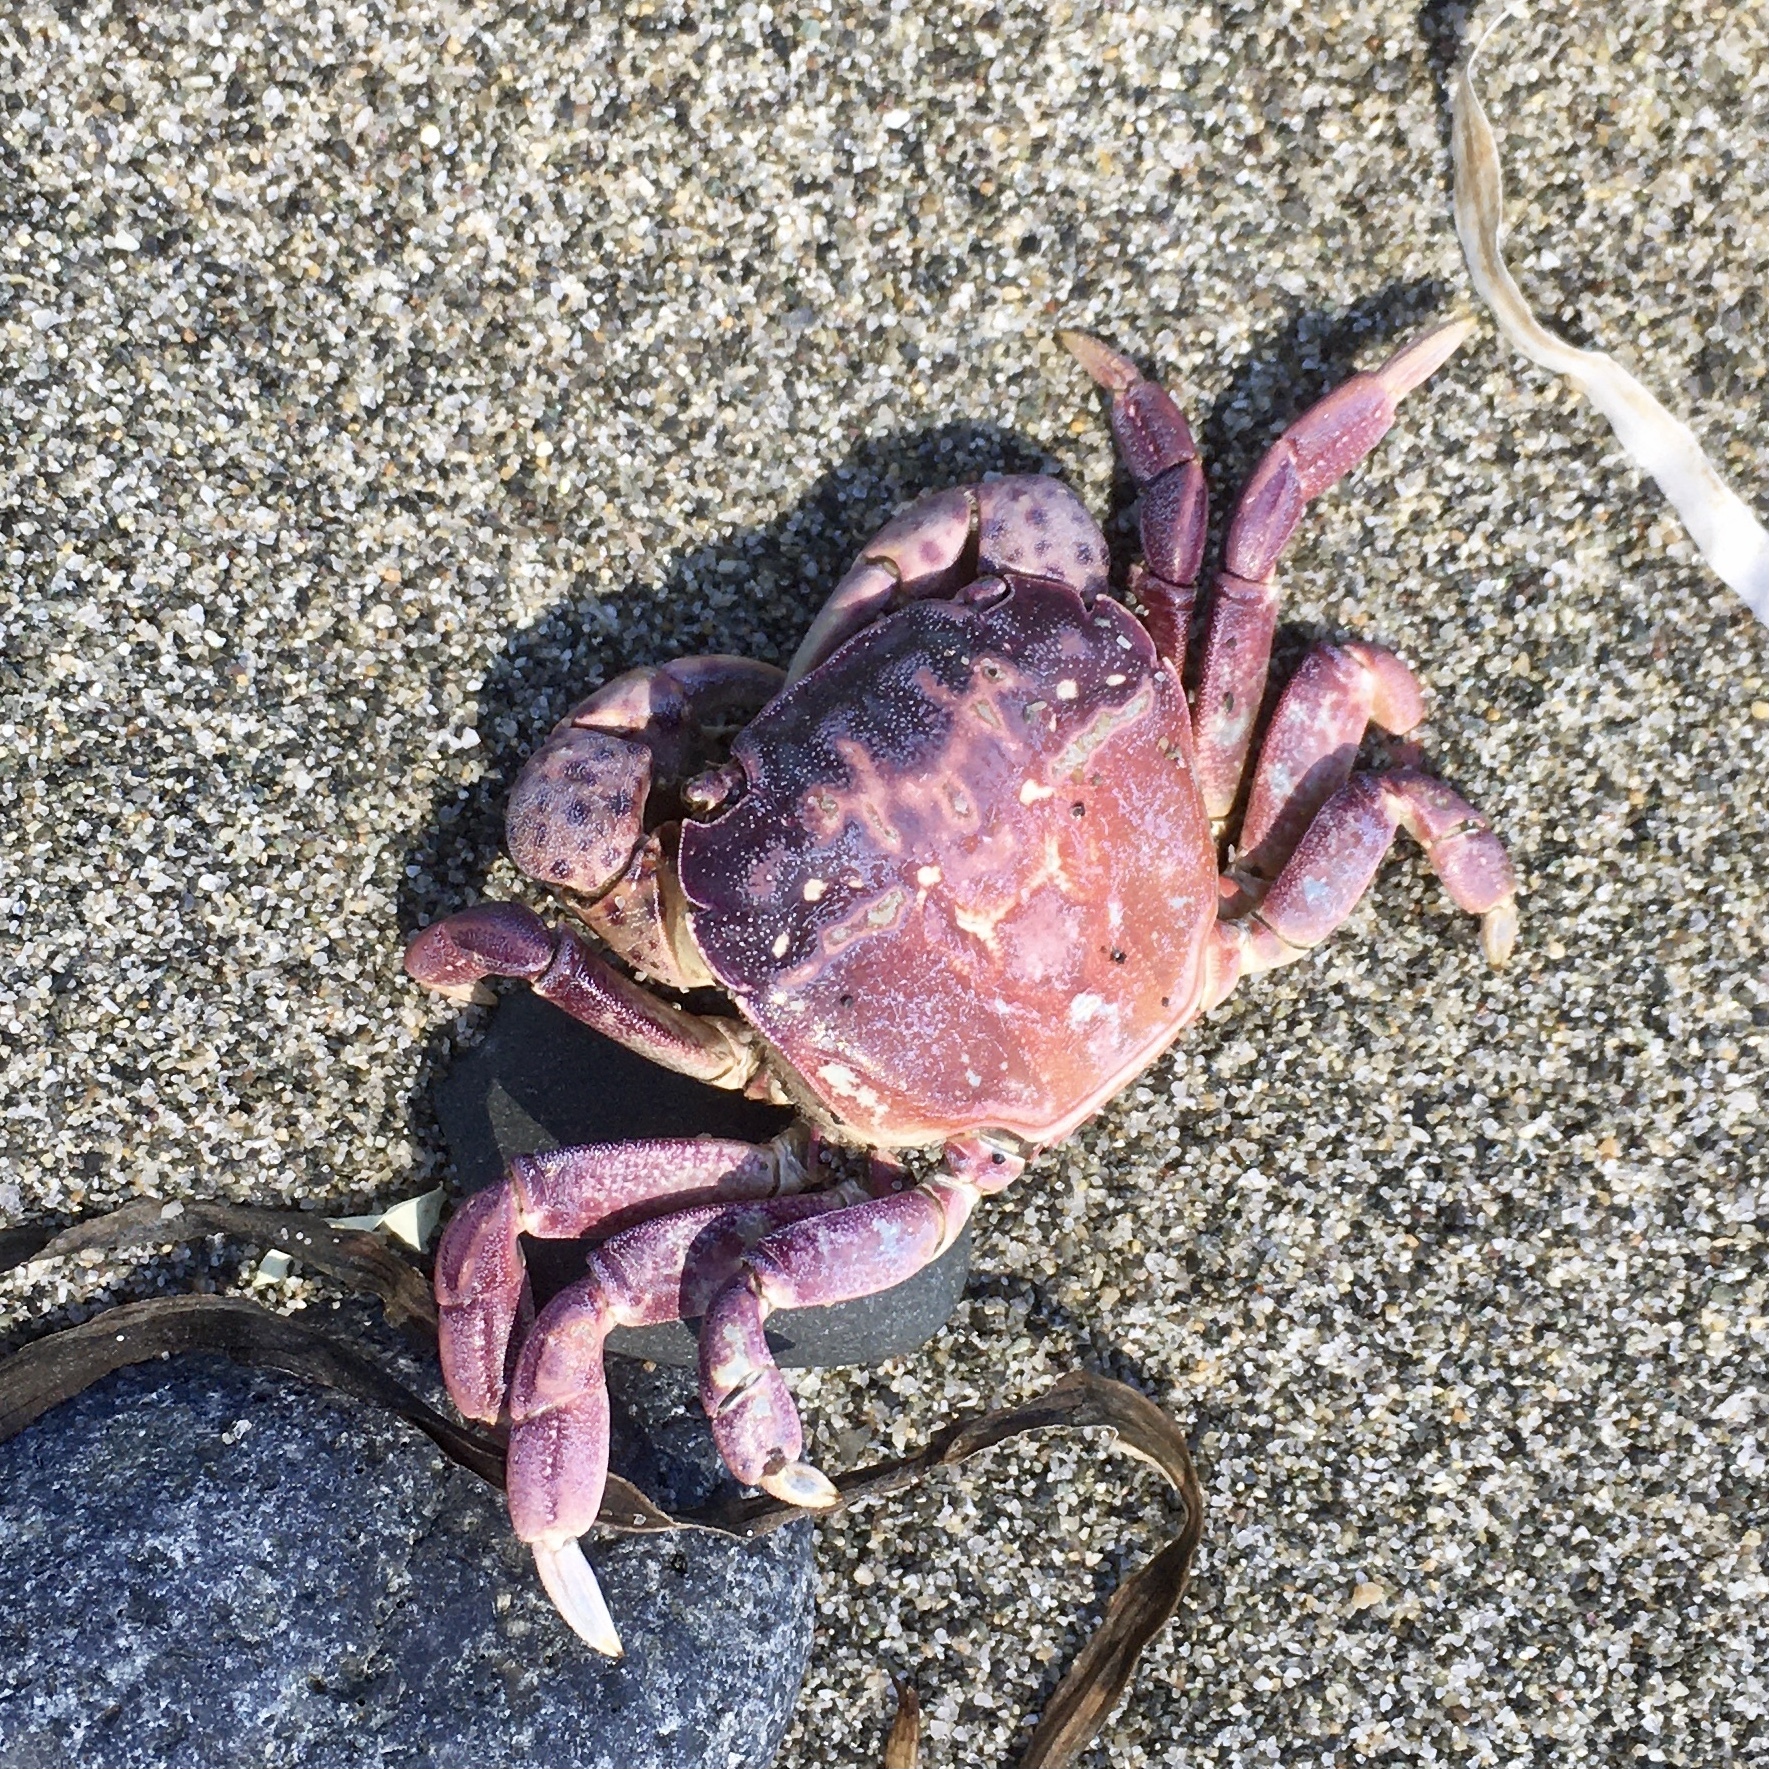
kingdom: Animalia
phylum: Arthropoda
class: Malacostraca
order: Decapoda
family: Varunidae
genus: Hemigrapsus
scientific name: Hemigrapsus nudus
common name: Purple shore crab
